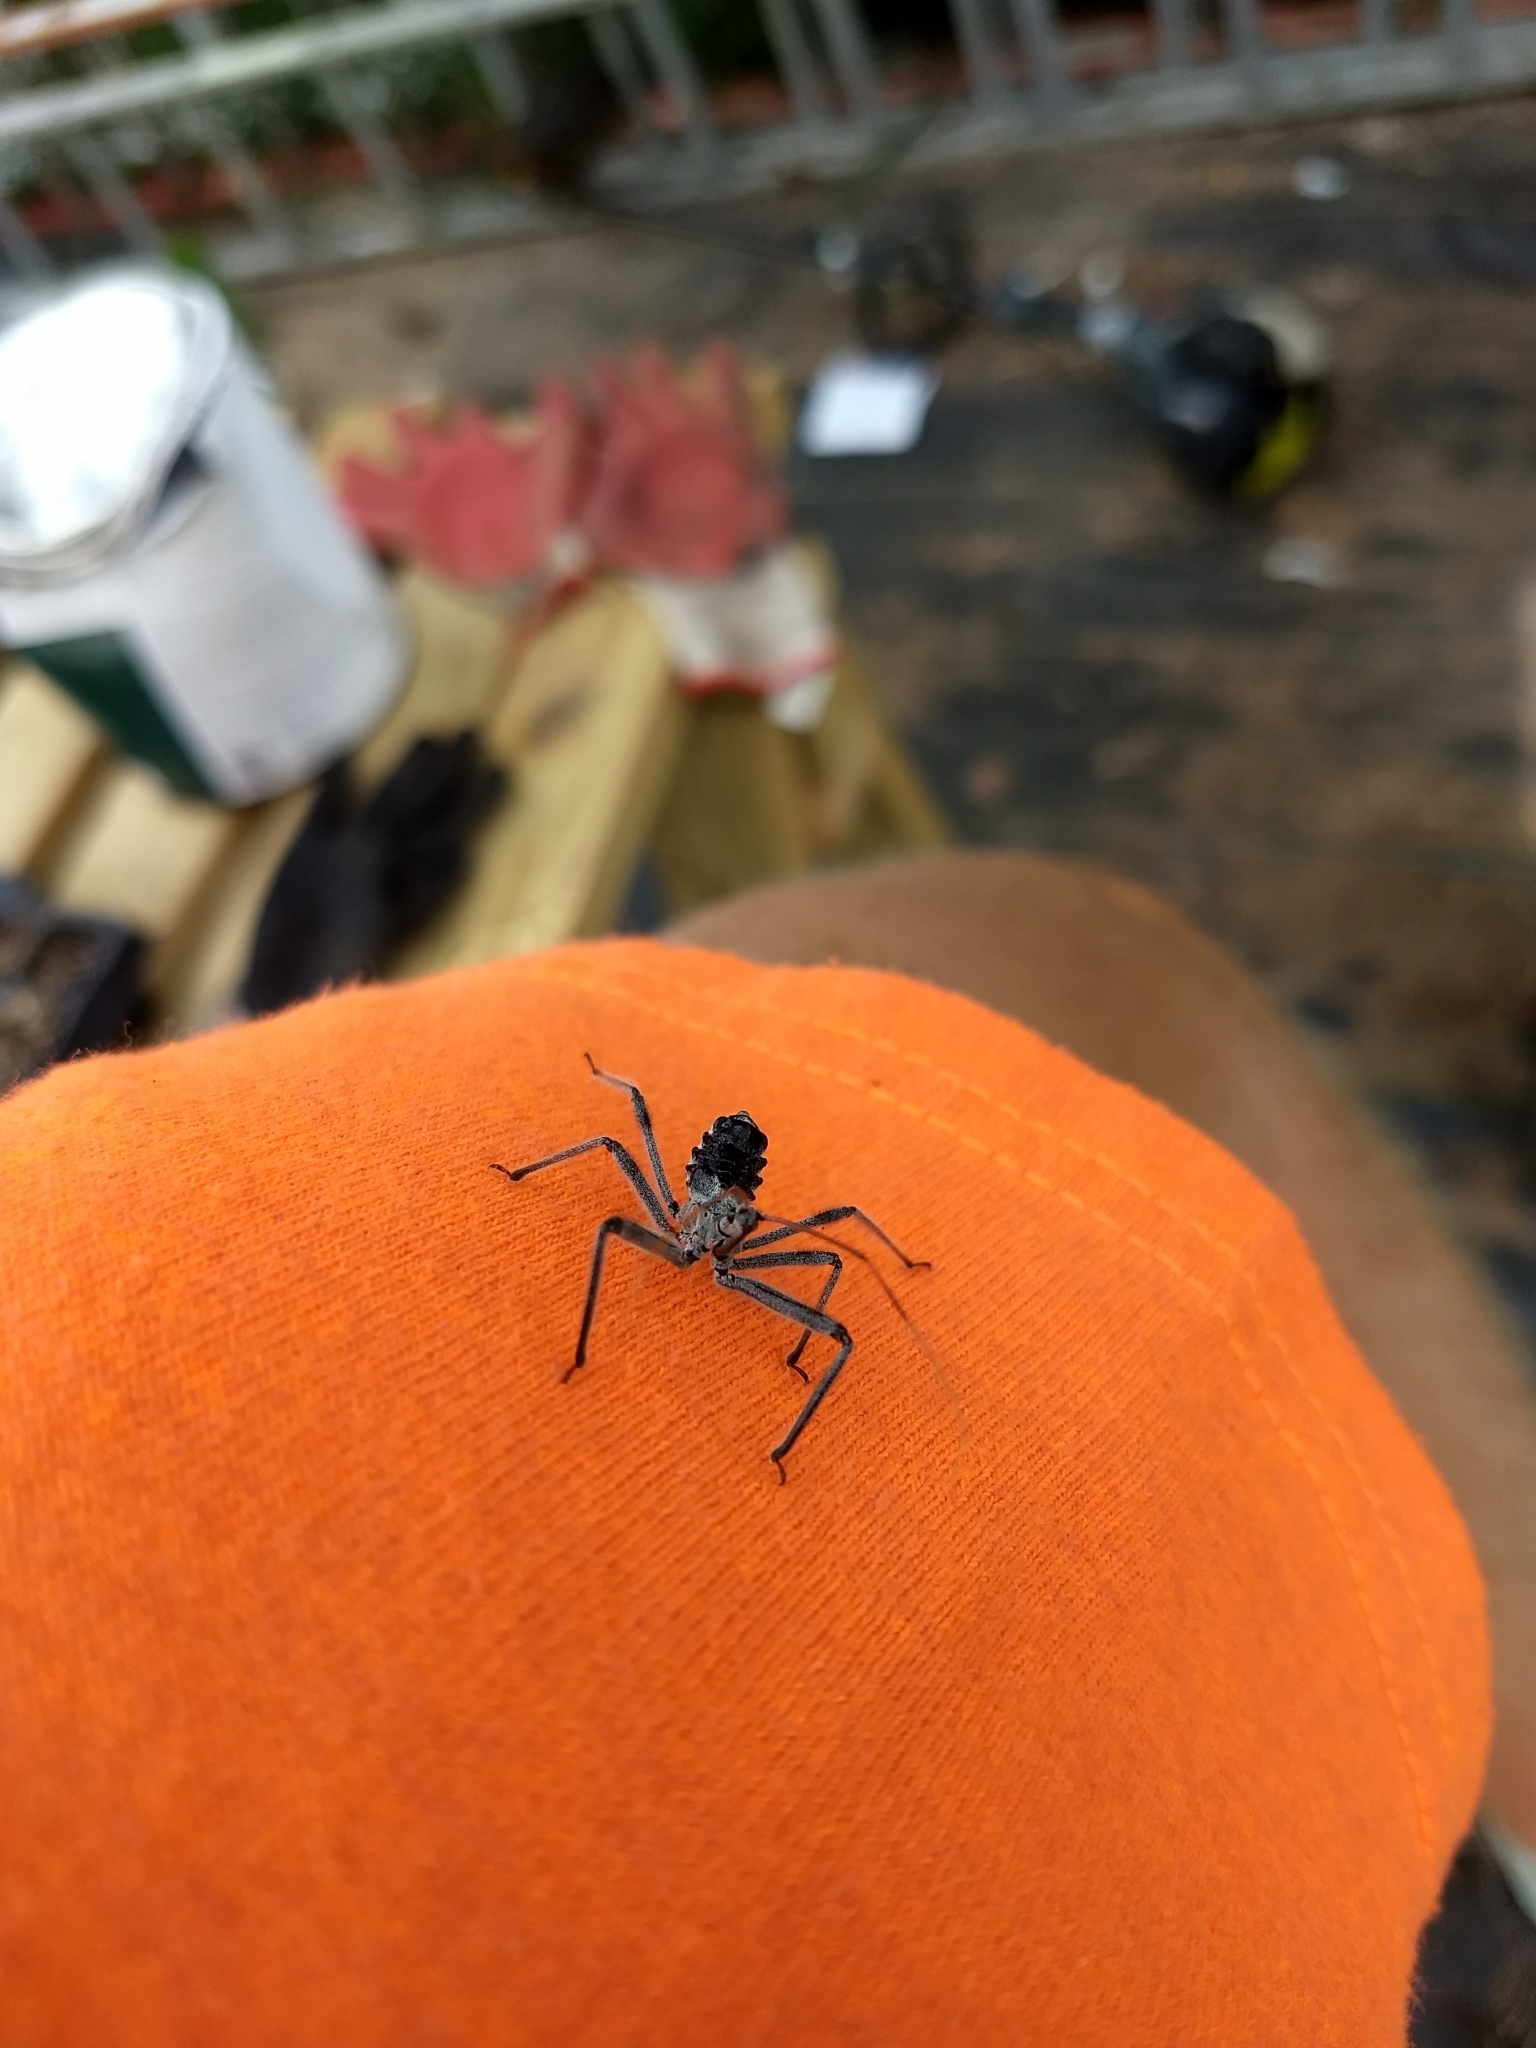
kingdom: Animalia
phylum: Arthropoda
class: Insecta
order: Hemiptera
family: Reduviidae
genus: Arilus
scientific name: Arilus cristatus
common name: North american wheel bug
